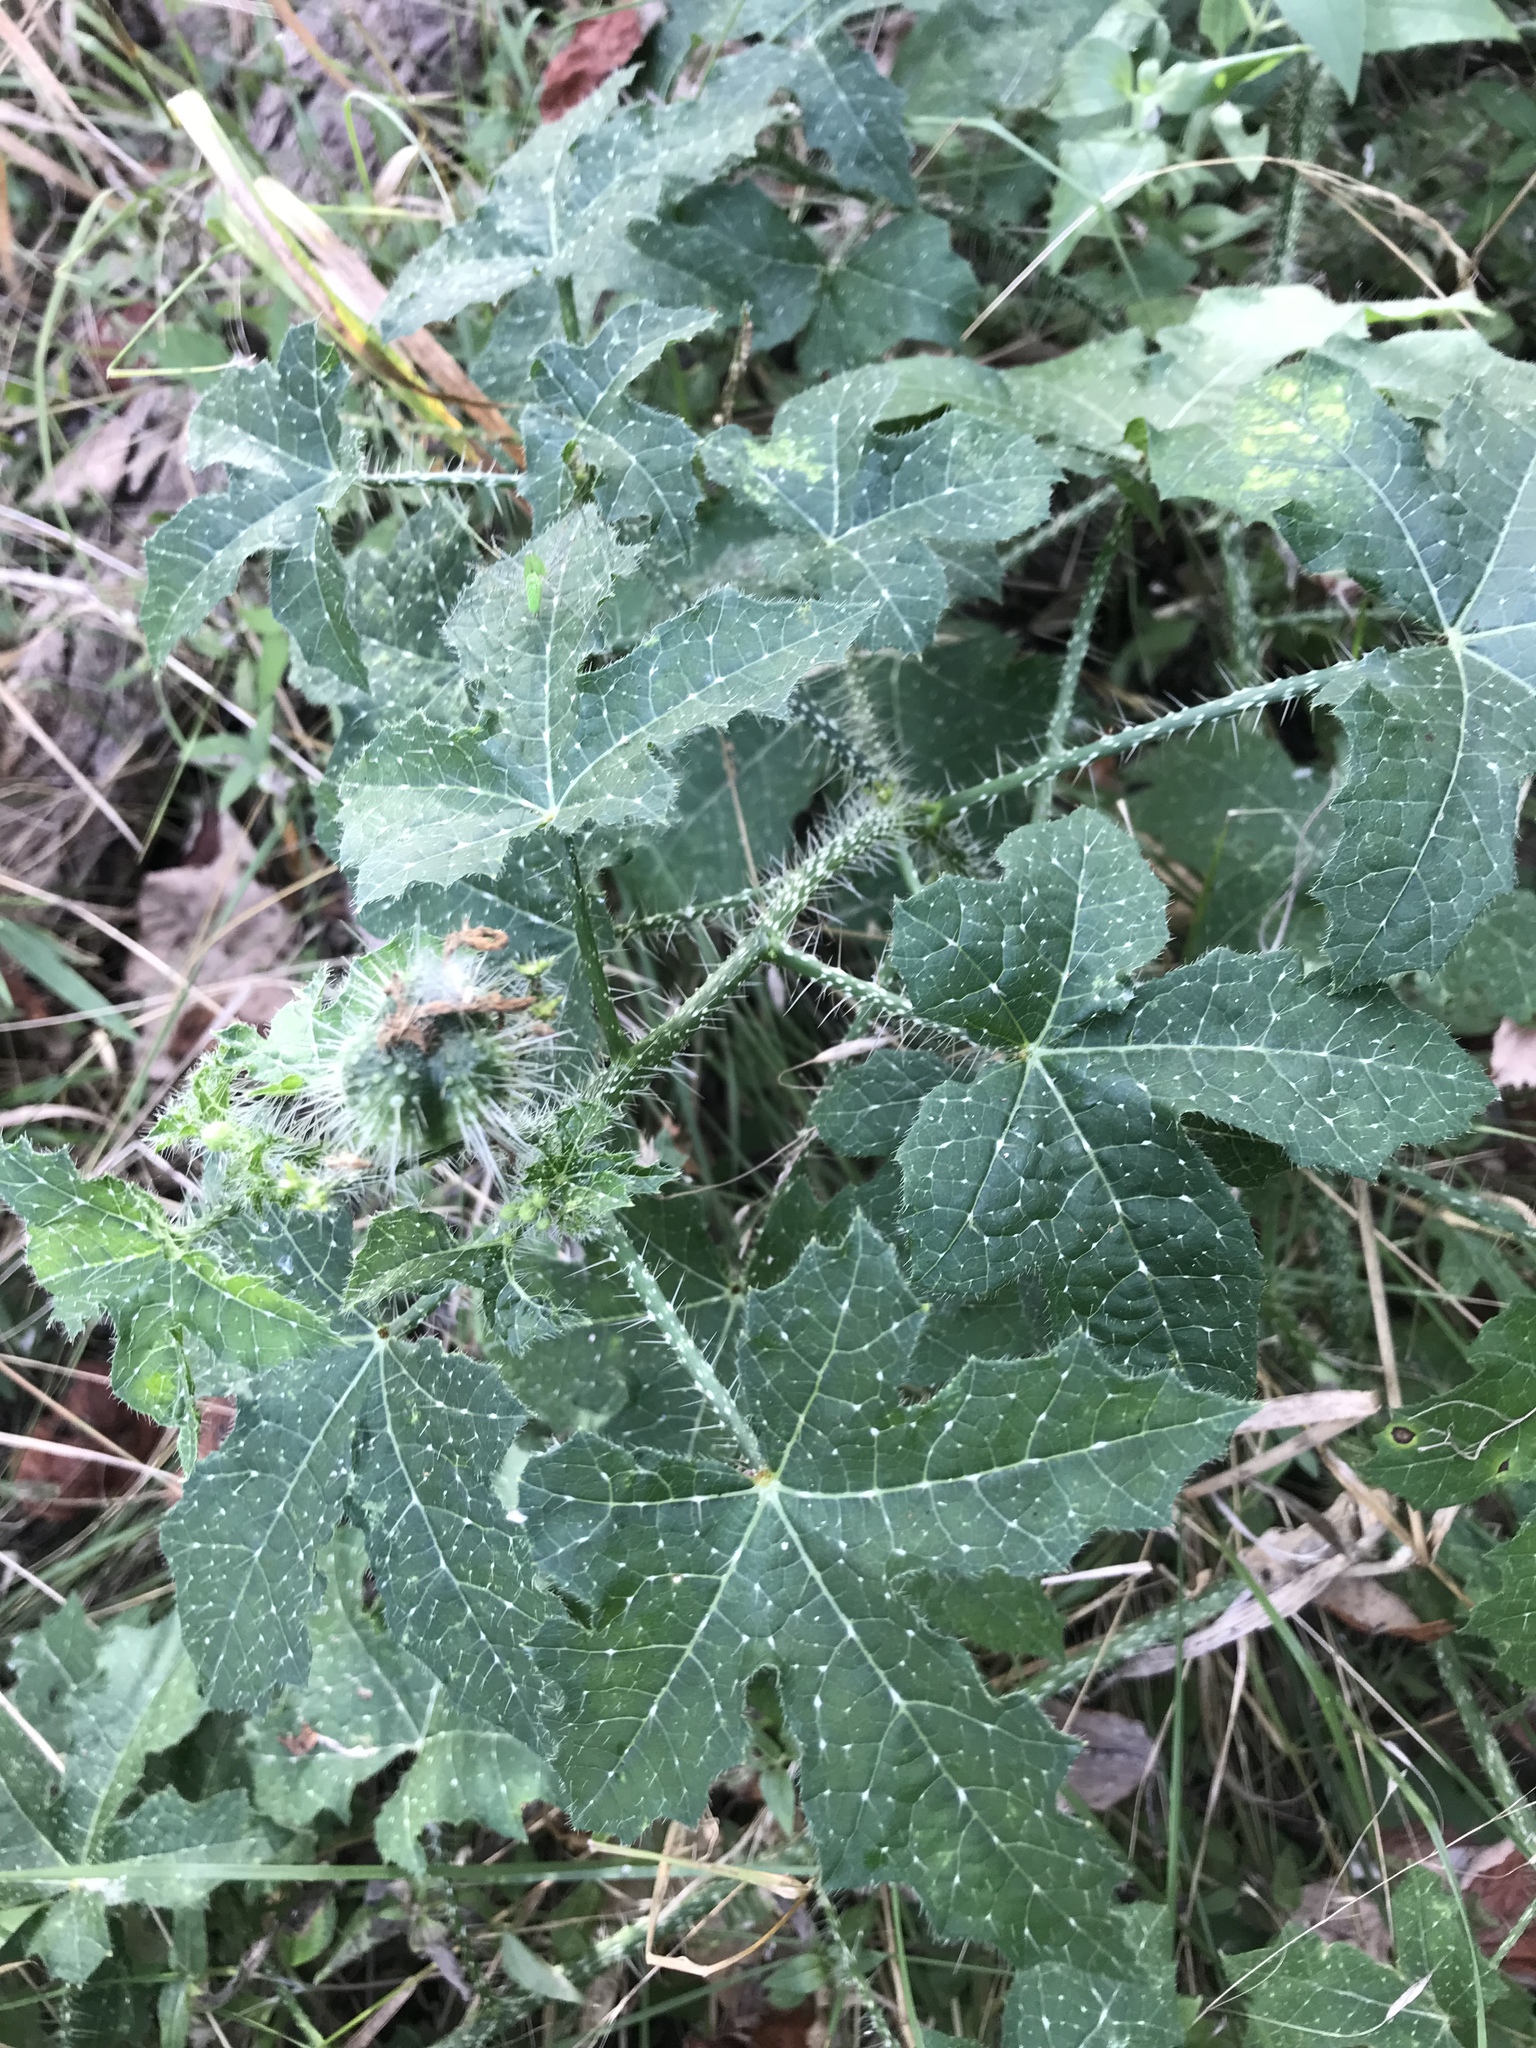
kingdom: Plantae
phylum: Tracheophyta
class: Magnoliopsida
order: Malpighiales
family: Euphorbiaceae
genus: Cnidoscolus
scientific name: Cnidoscolus texanus
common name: Texas bull-nettle
